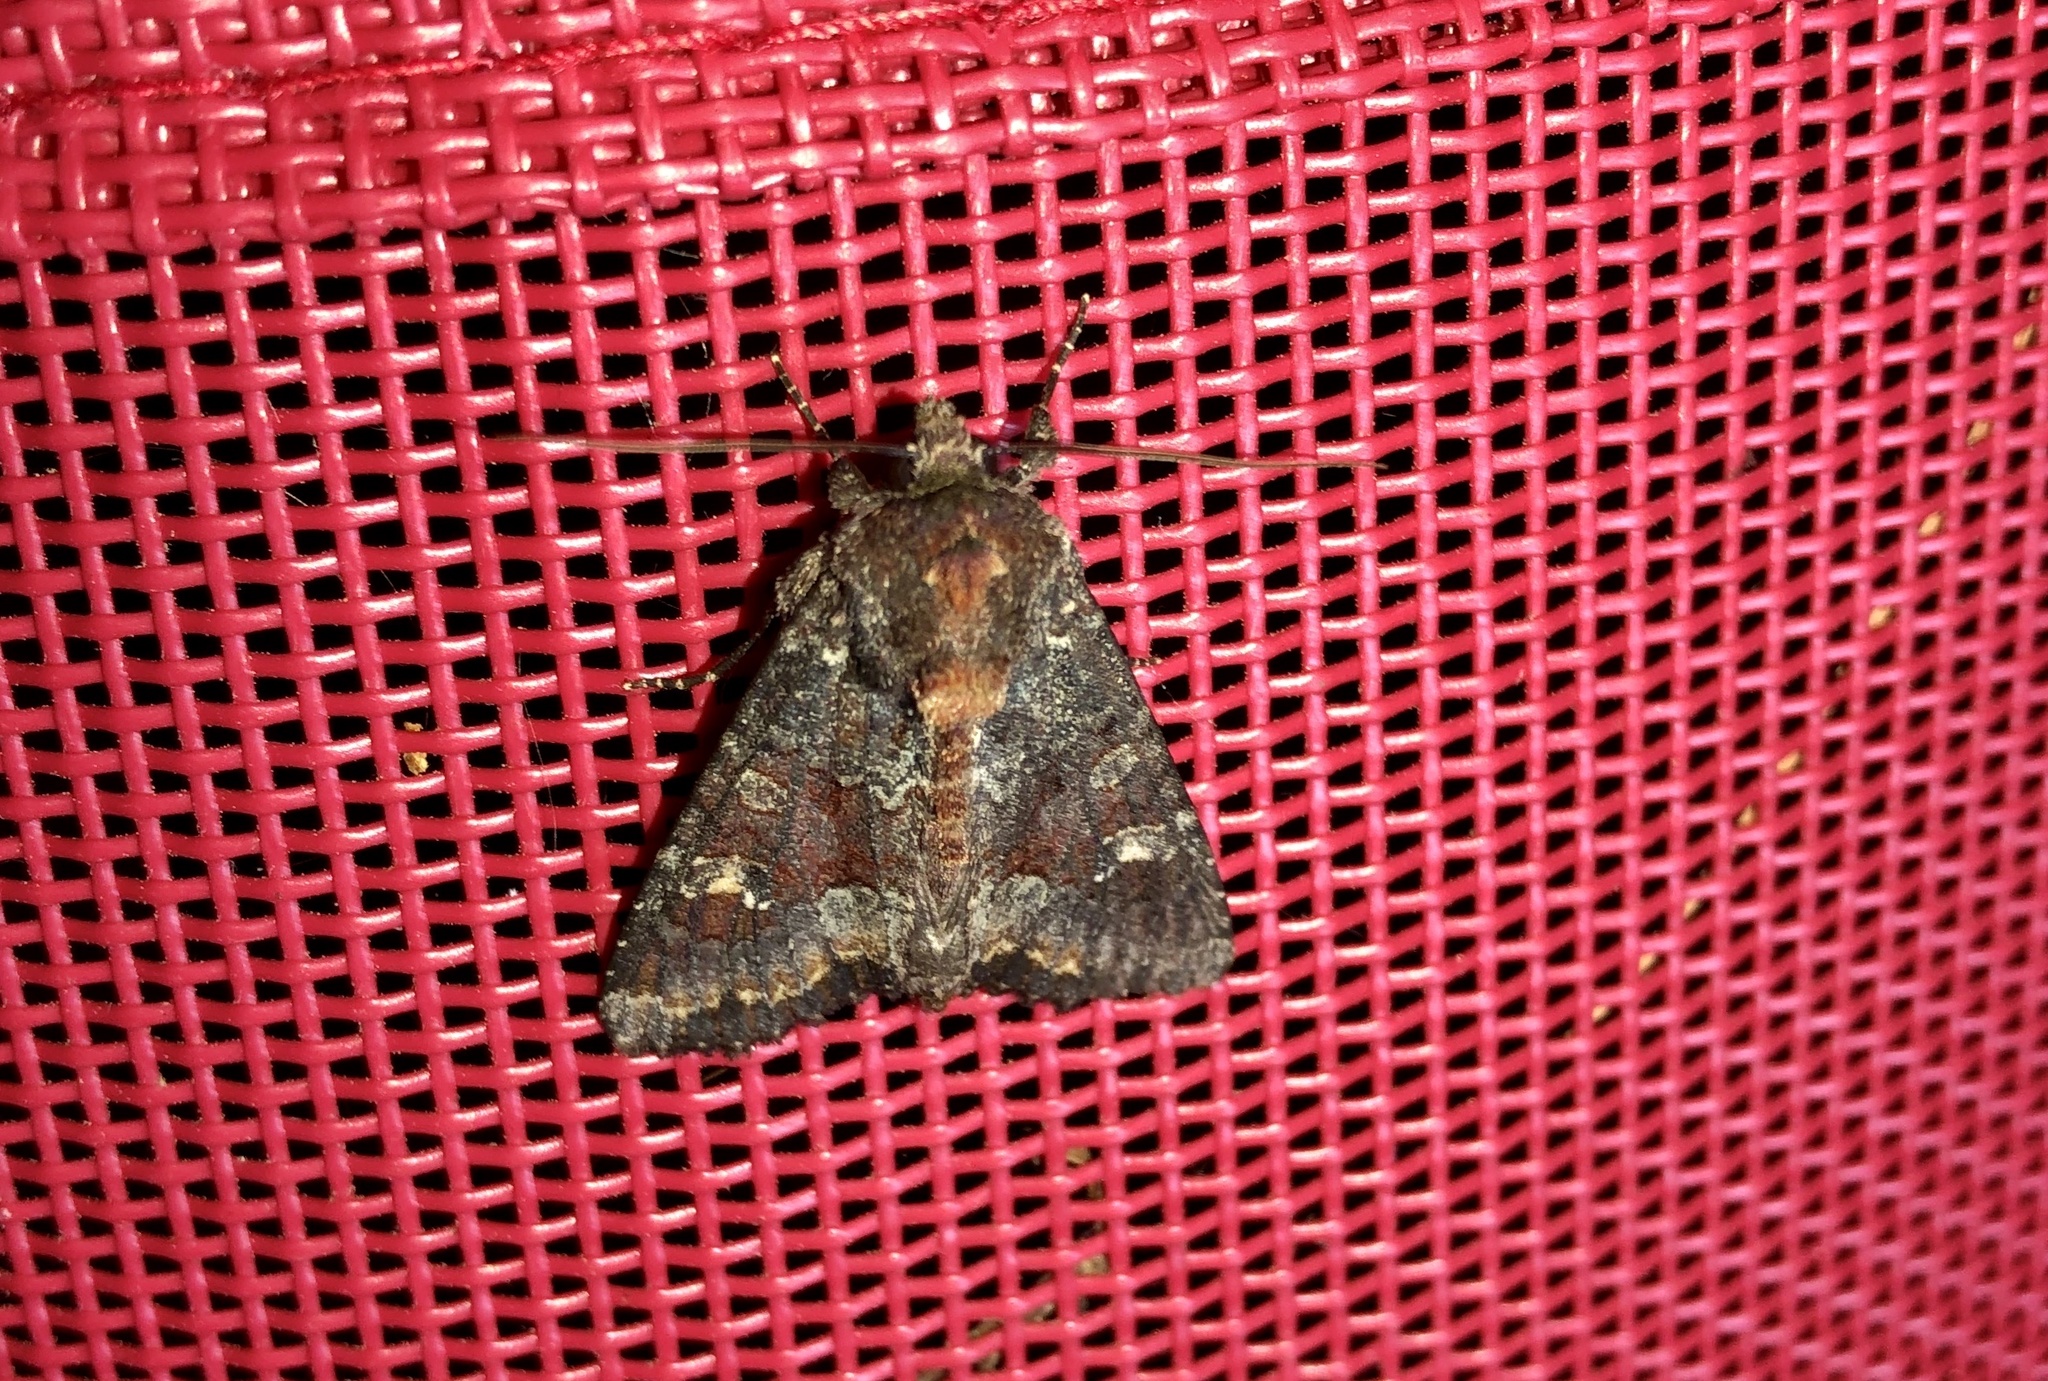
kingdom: Animalia
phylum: Arthropoda
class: Insecta
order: Lepidoptera
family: Noctuidae
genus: Apamea
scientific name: Apamea amputatrix
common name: Yellow-headed cutworm moth
